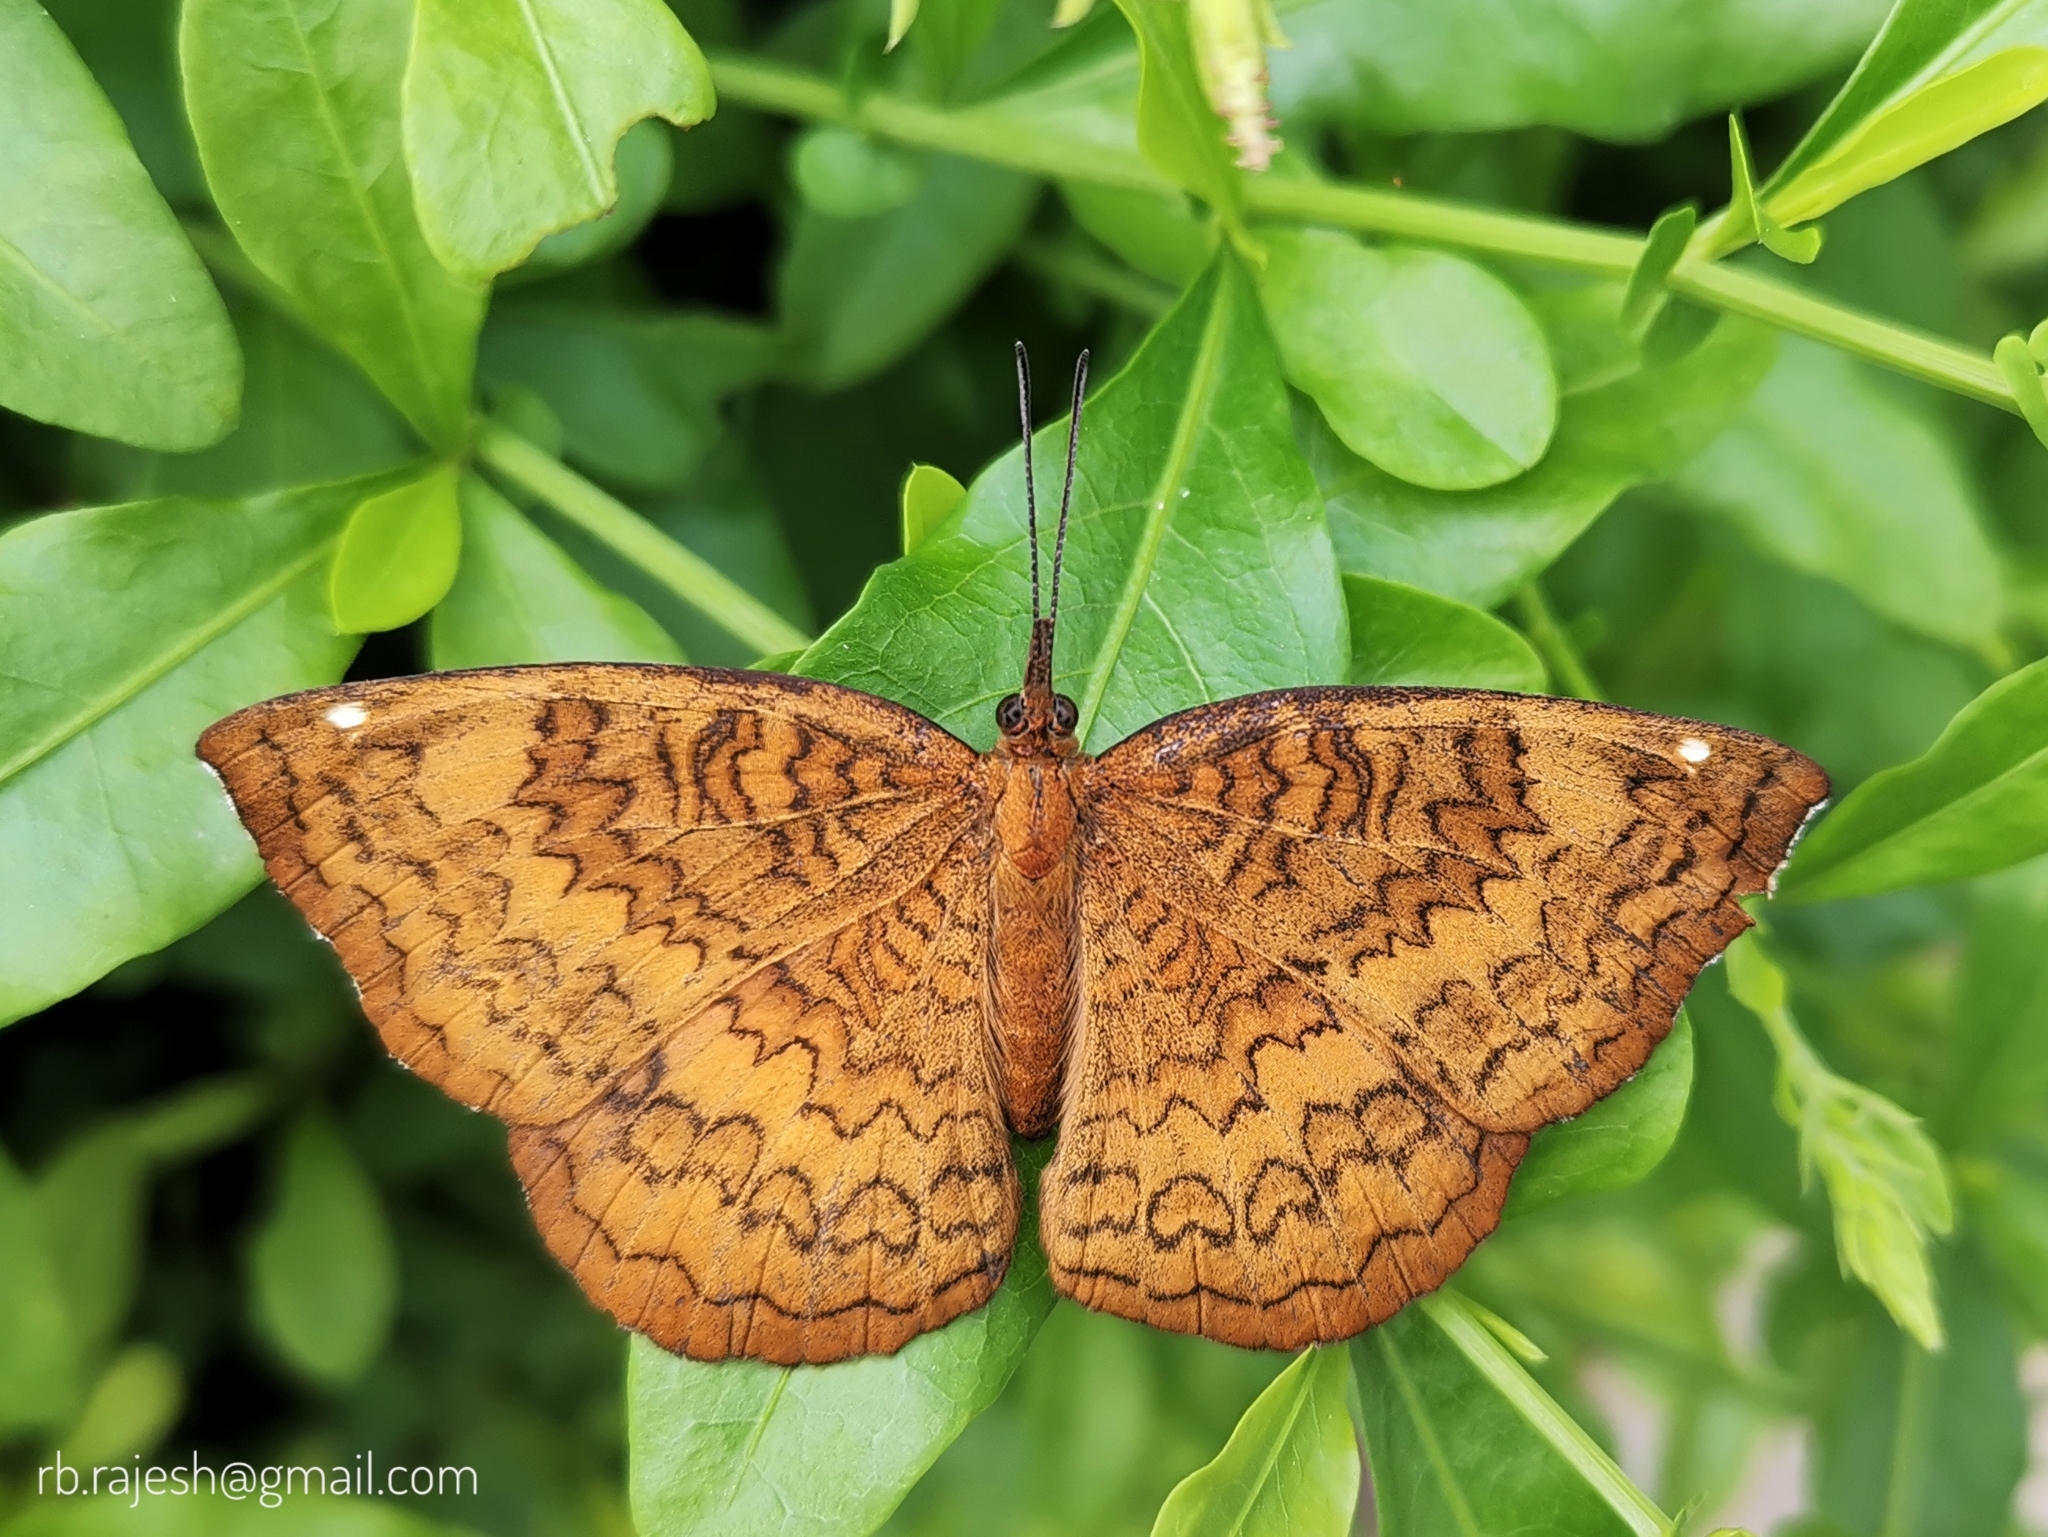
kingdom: Animalia
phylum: Arthropoda
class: Insecta
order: Lepidoptera
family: Nymphalidae
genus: Ariadne
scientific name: Ariadne merione
